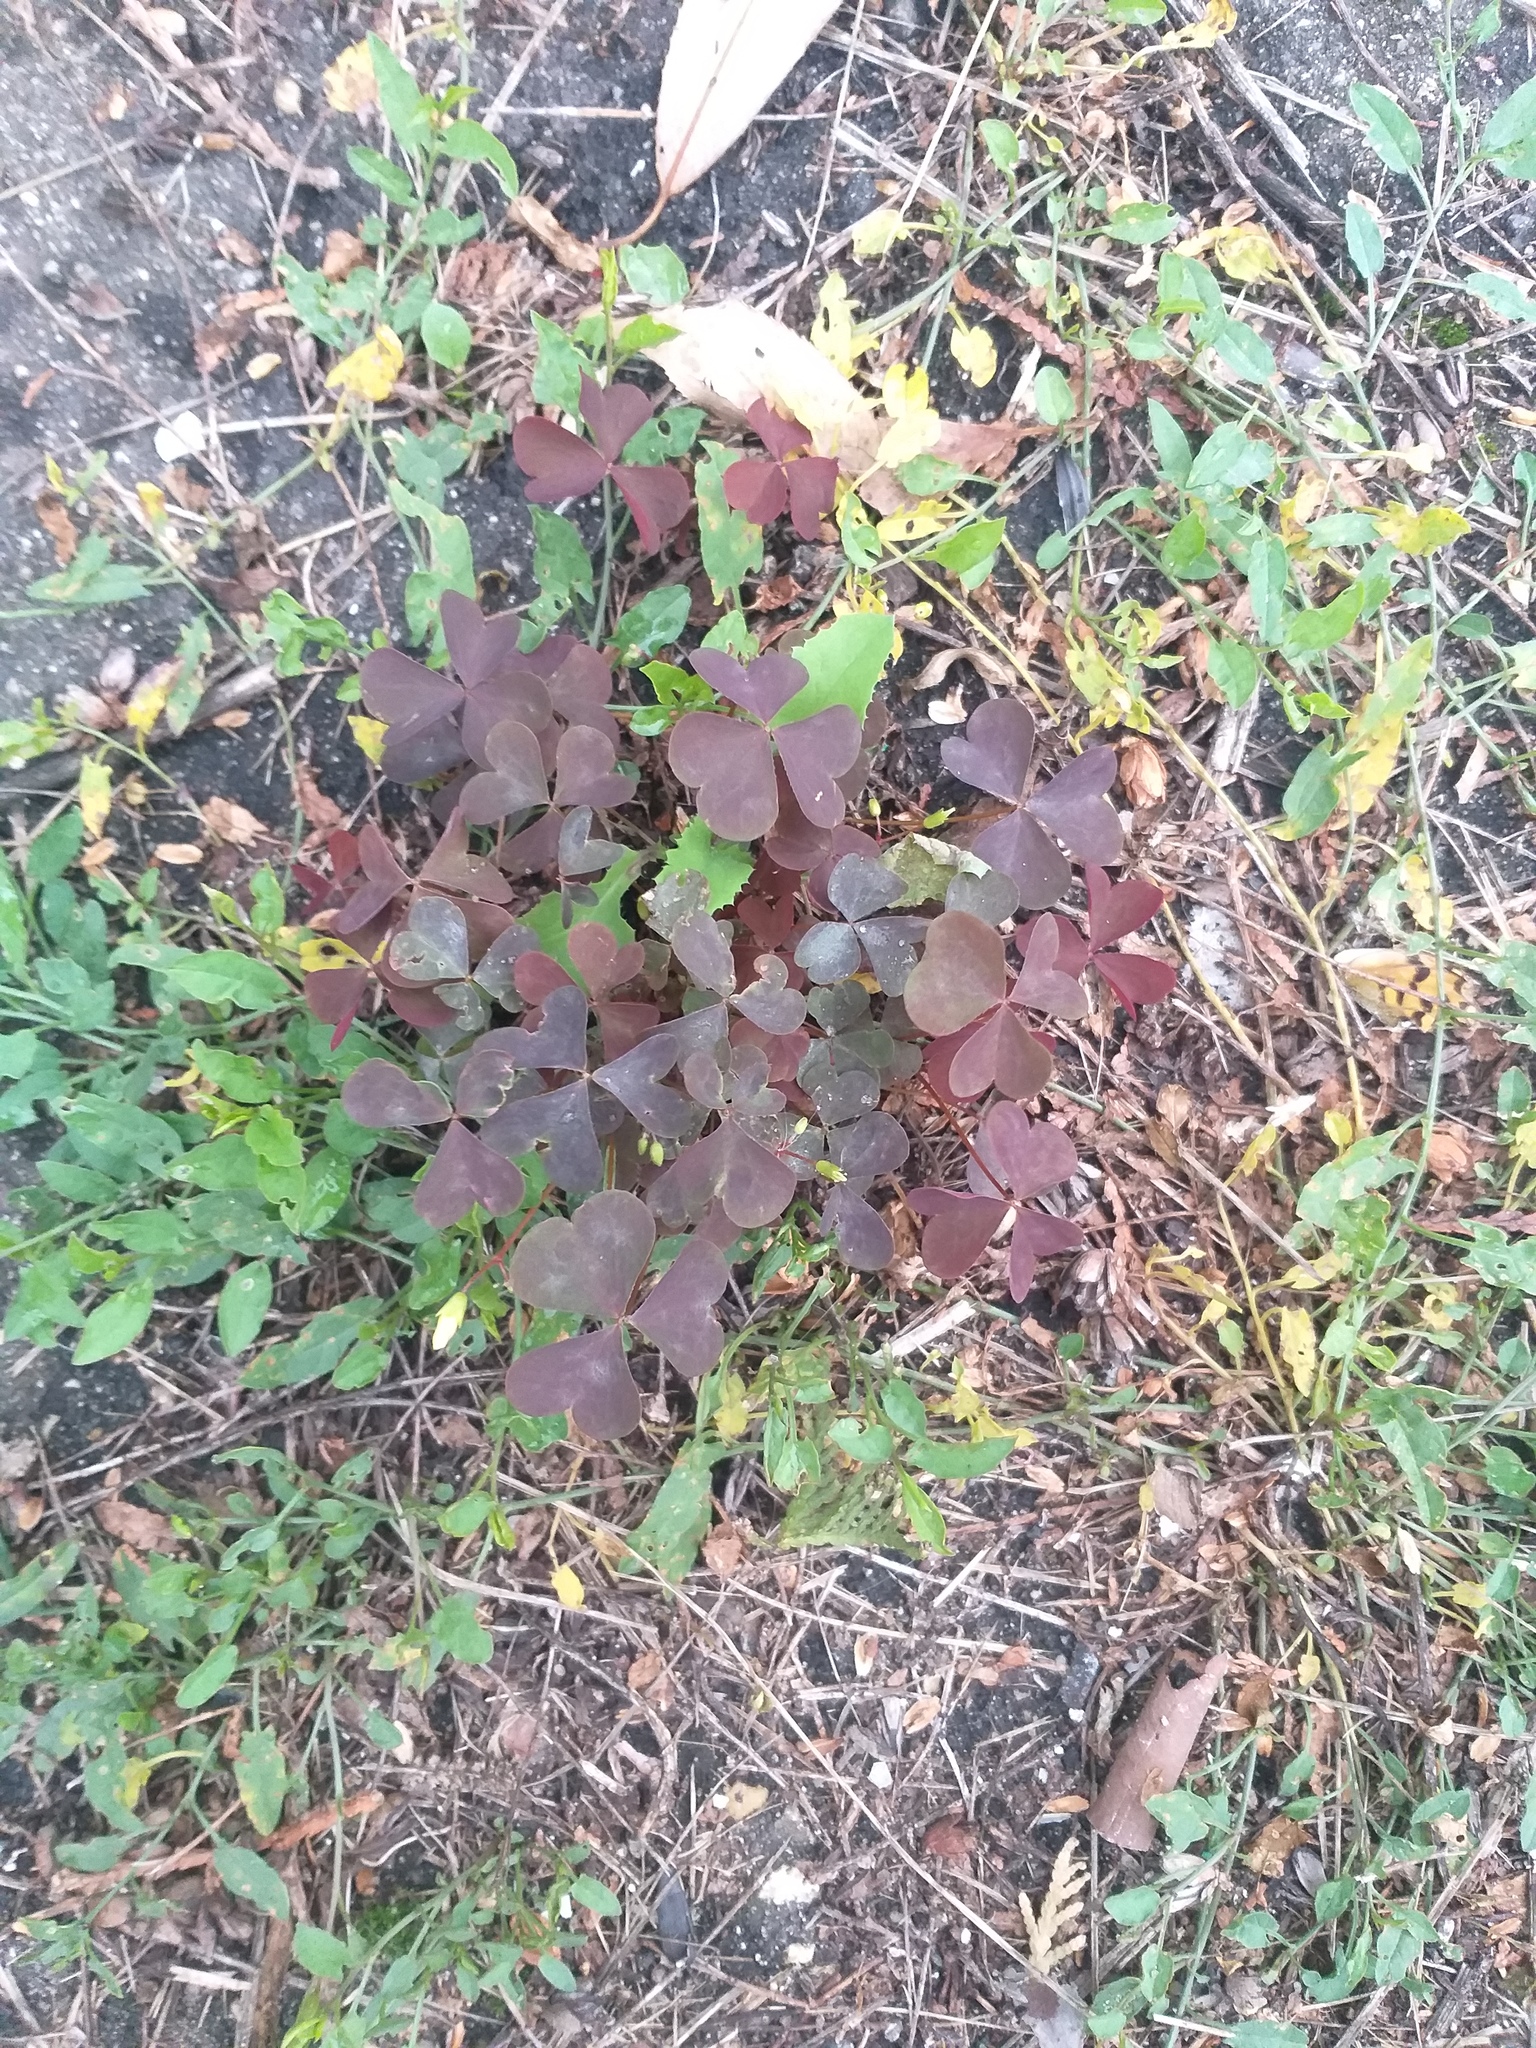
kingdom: Plantae
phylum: Tracheophyta
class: Magnoliopsida
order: Oxalidales
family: Oxalidaceae
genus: Oxalis
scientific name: Oxalis stricta
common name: Upright yellow-sorrel
